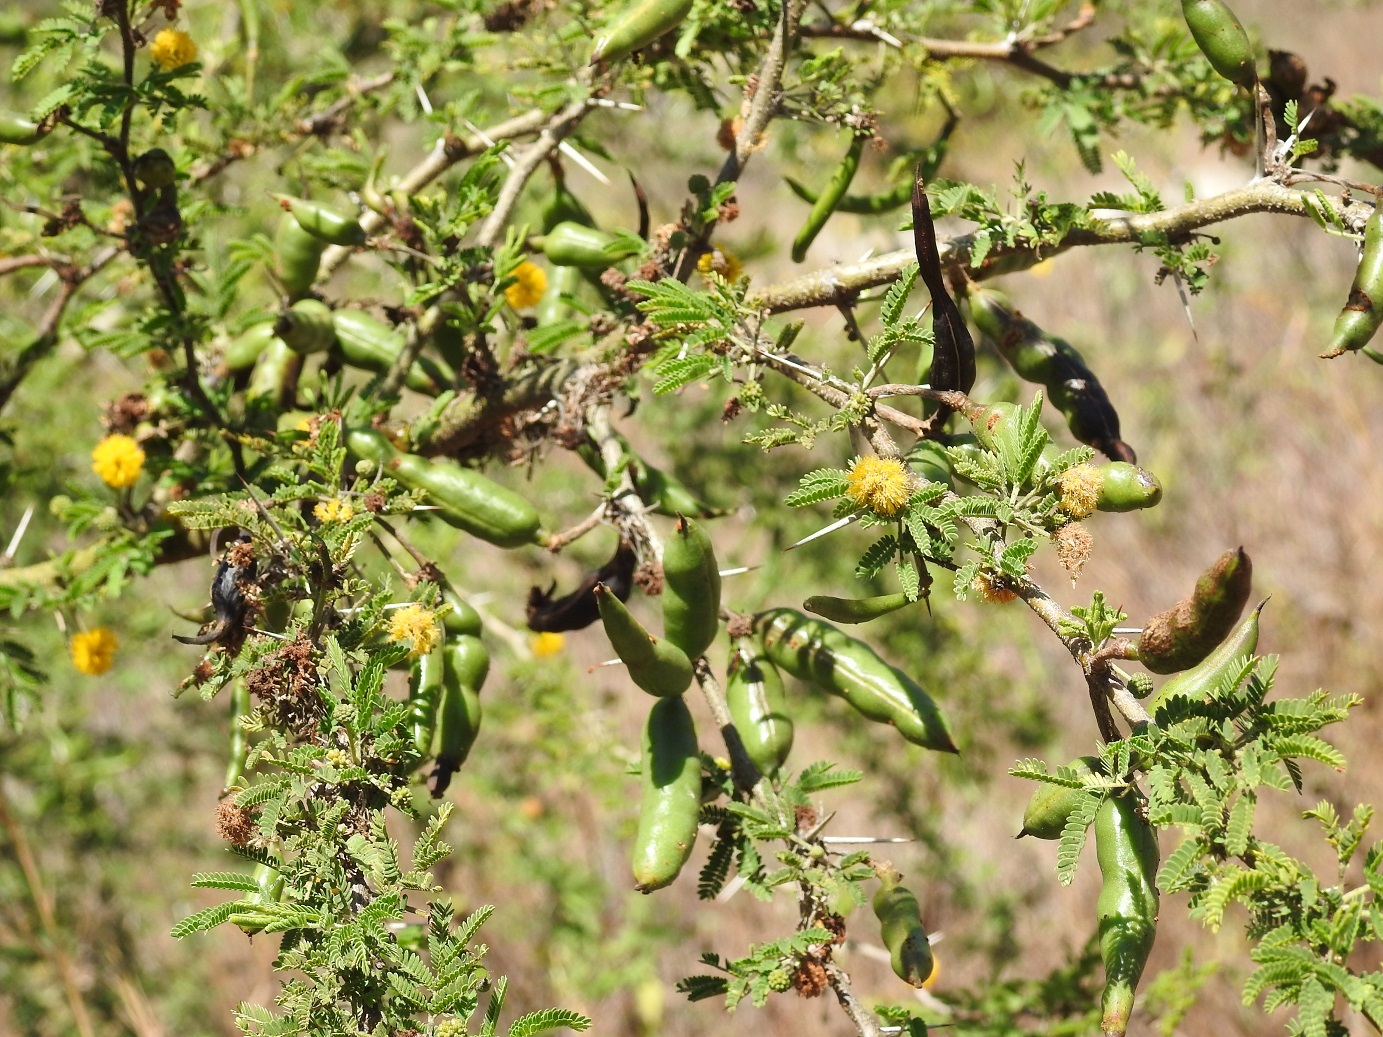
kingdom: Plantae
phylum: Tracheophyta
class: Magnoliopsida
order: Fabales
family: Fabaceae
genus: Vachellia
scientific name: Vachellia farnesiana
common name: Sweet acacia
